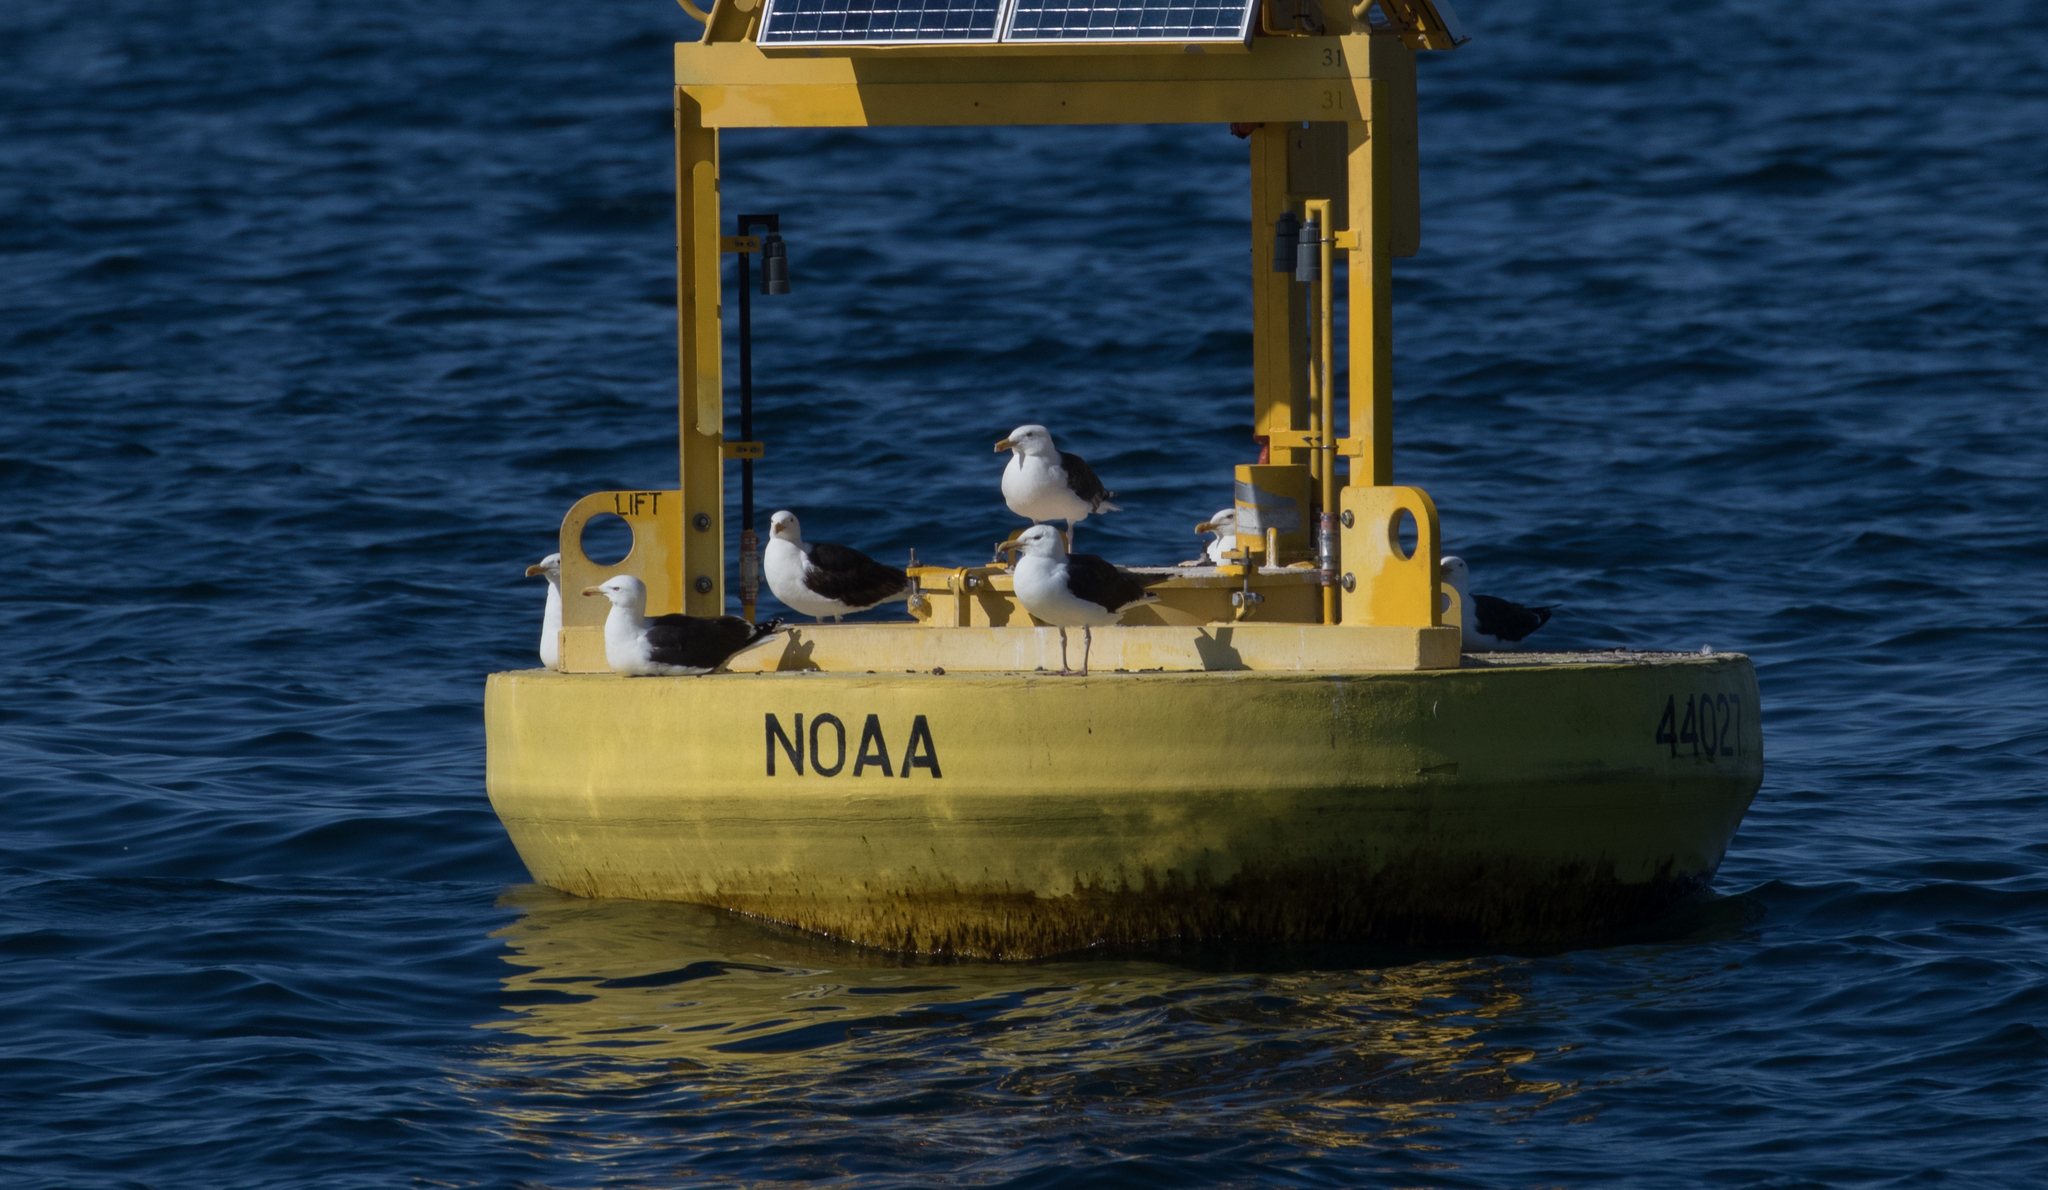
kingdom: Animalia
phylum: Chordata
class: Aves
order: Charadriiformes
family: Laridae
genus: Larus
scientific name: Larus marinus
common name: Great black-backed gull
